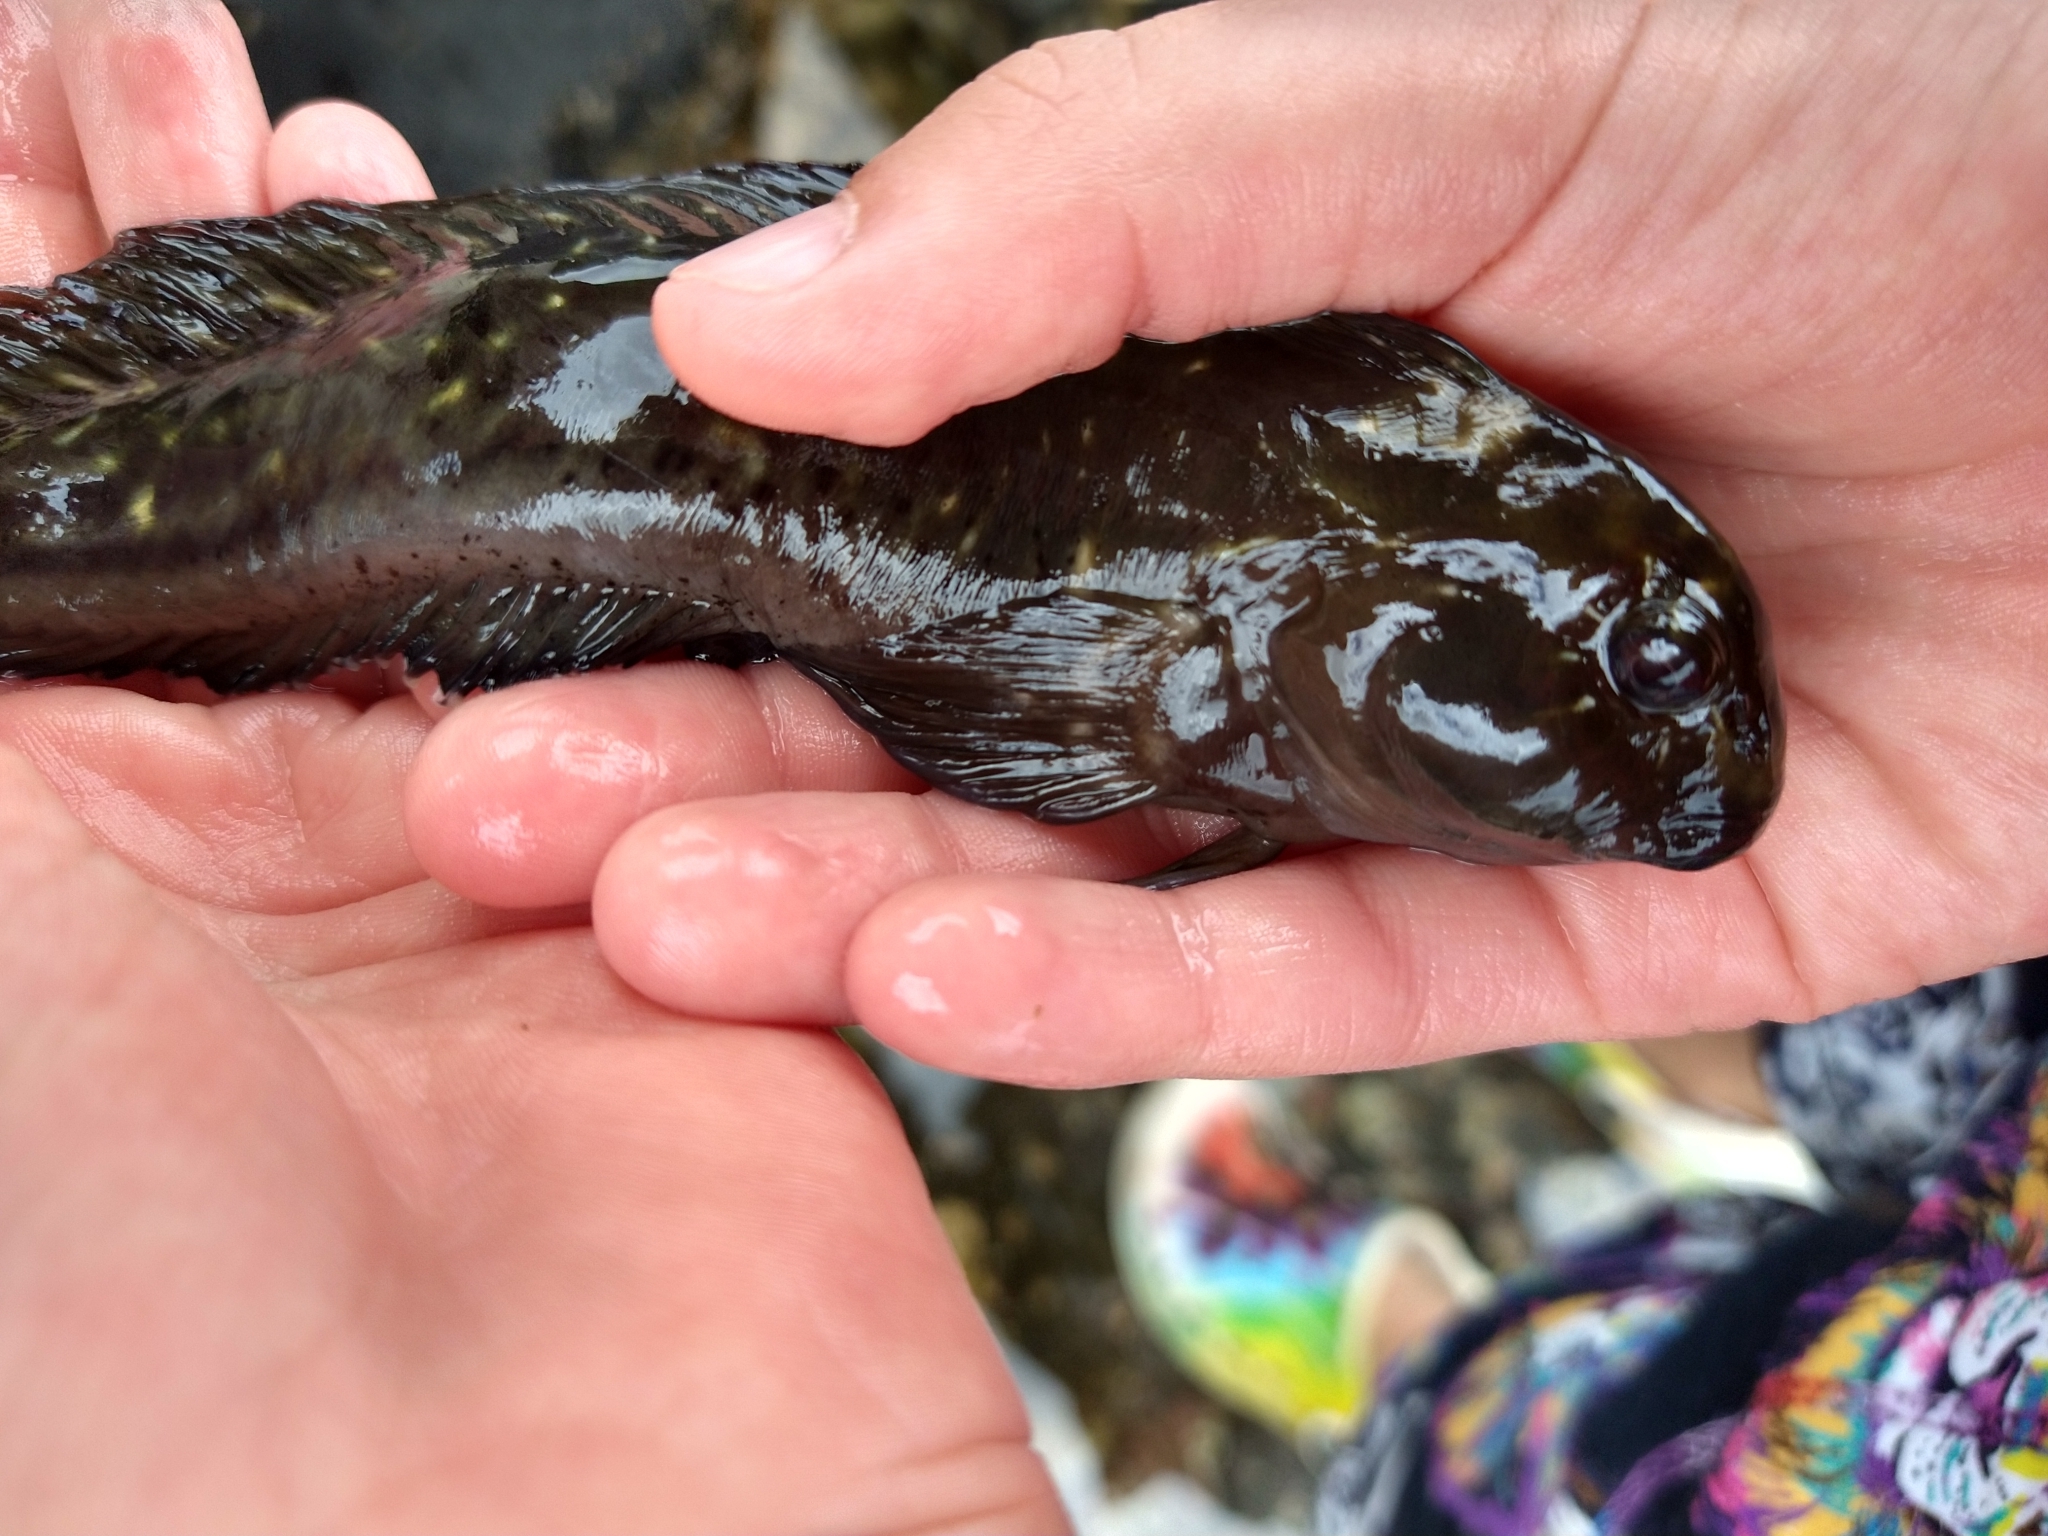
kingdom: Animalia
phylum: Chordata
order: Perciformes
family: Blenniidae
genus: Parablennius
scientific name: Parablennius parvicornis
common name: Rock-pool blenny
